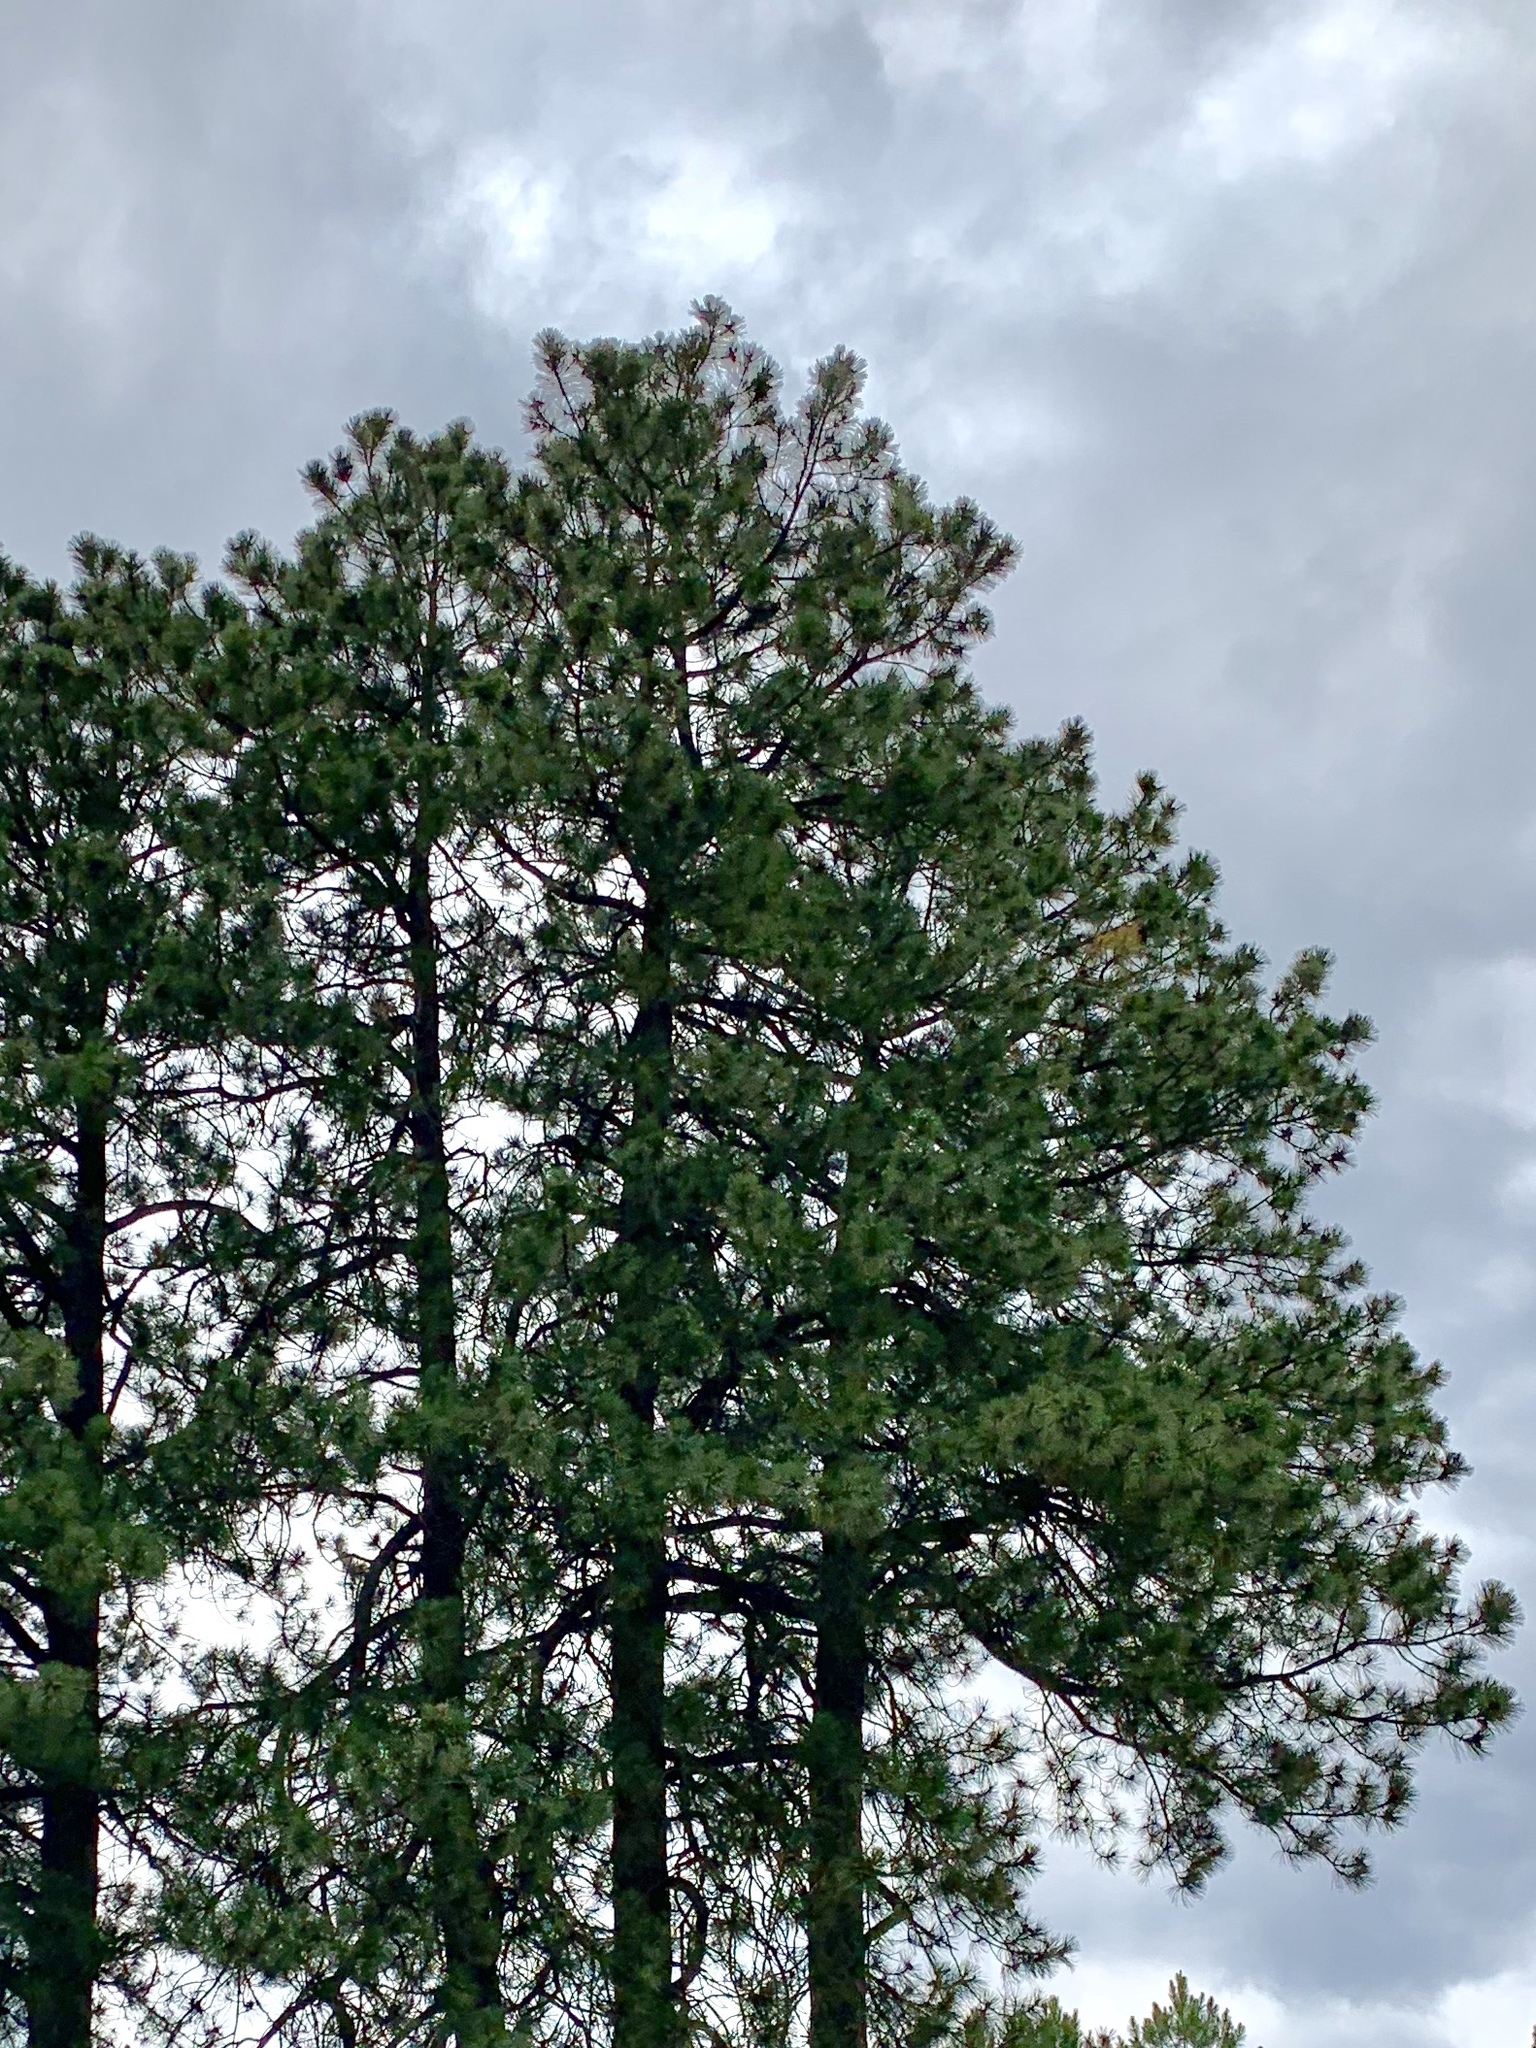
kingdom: Plantae
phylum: Tracheophyta
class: Pinopsida
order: Pinales
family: Pinaceae
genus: Pinus
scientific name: Pinus ponderosa
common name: Western yellow-pine
